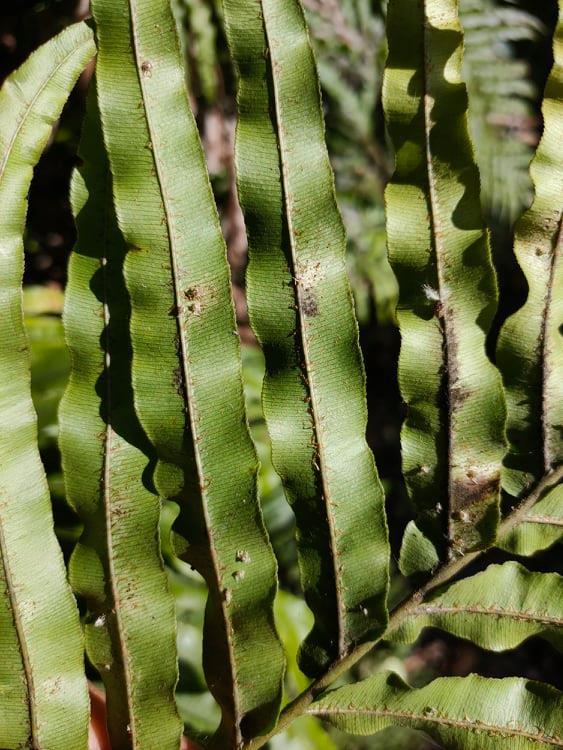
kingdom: Plantae
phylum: Tracheophyta
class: Polypodiopsida
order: Polypodiales
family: Blechnaceae
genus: Parablechnum
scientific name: Parablechnum novae-zelandiae
